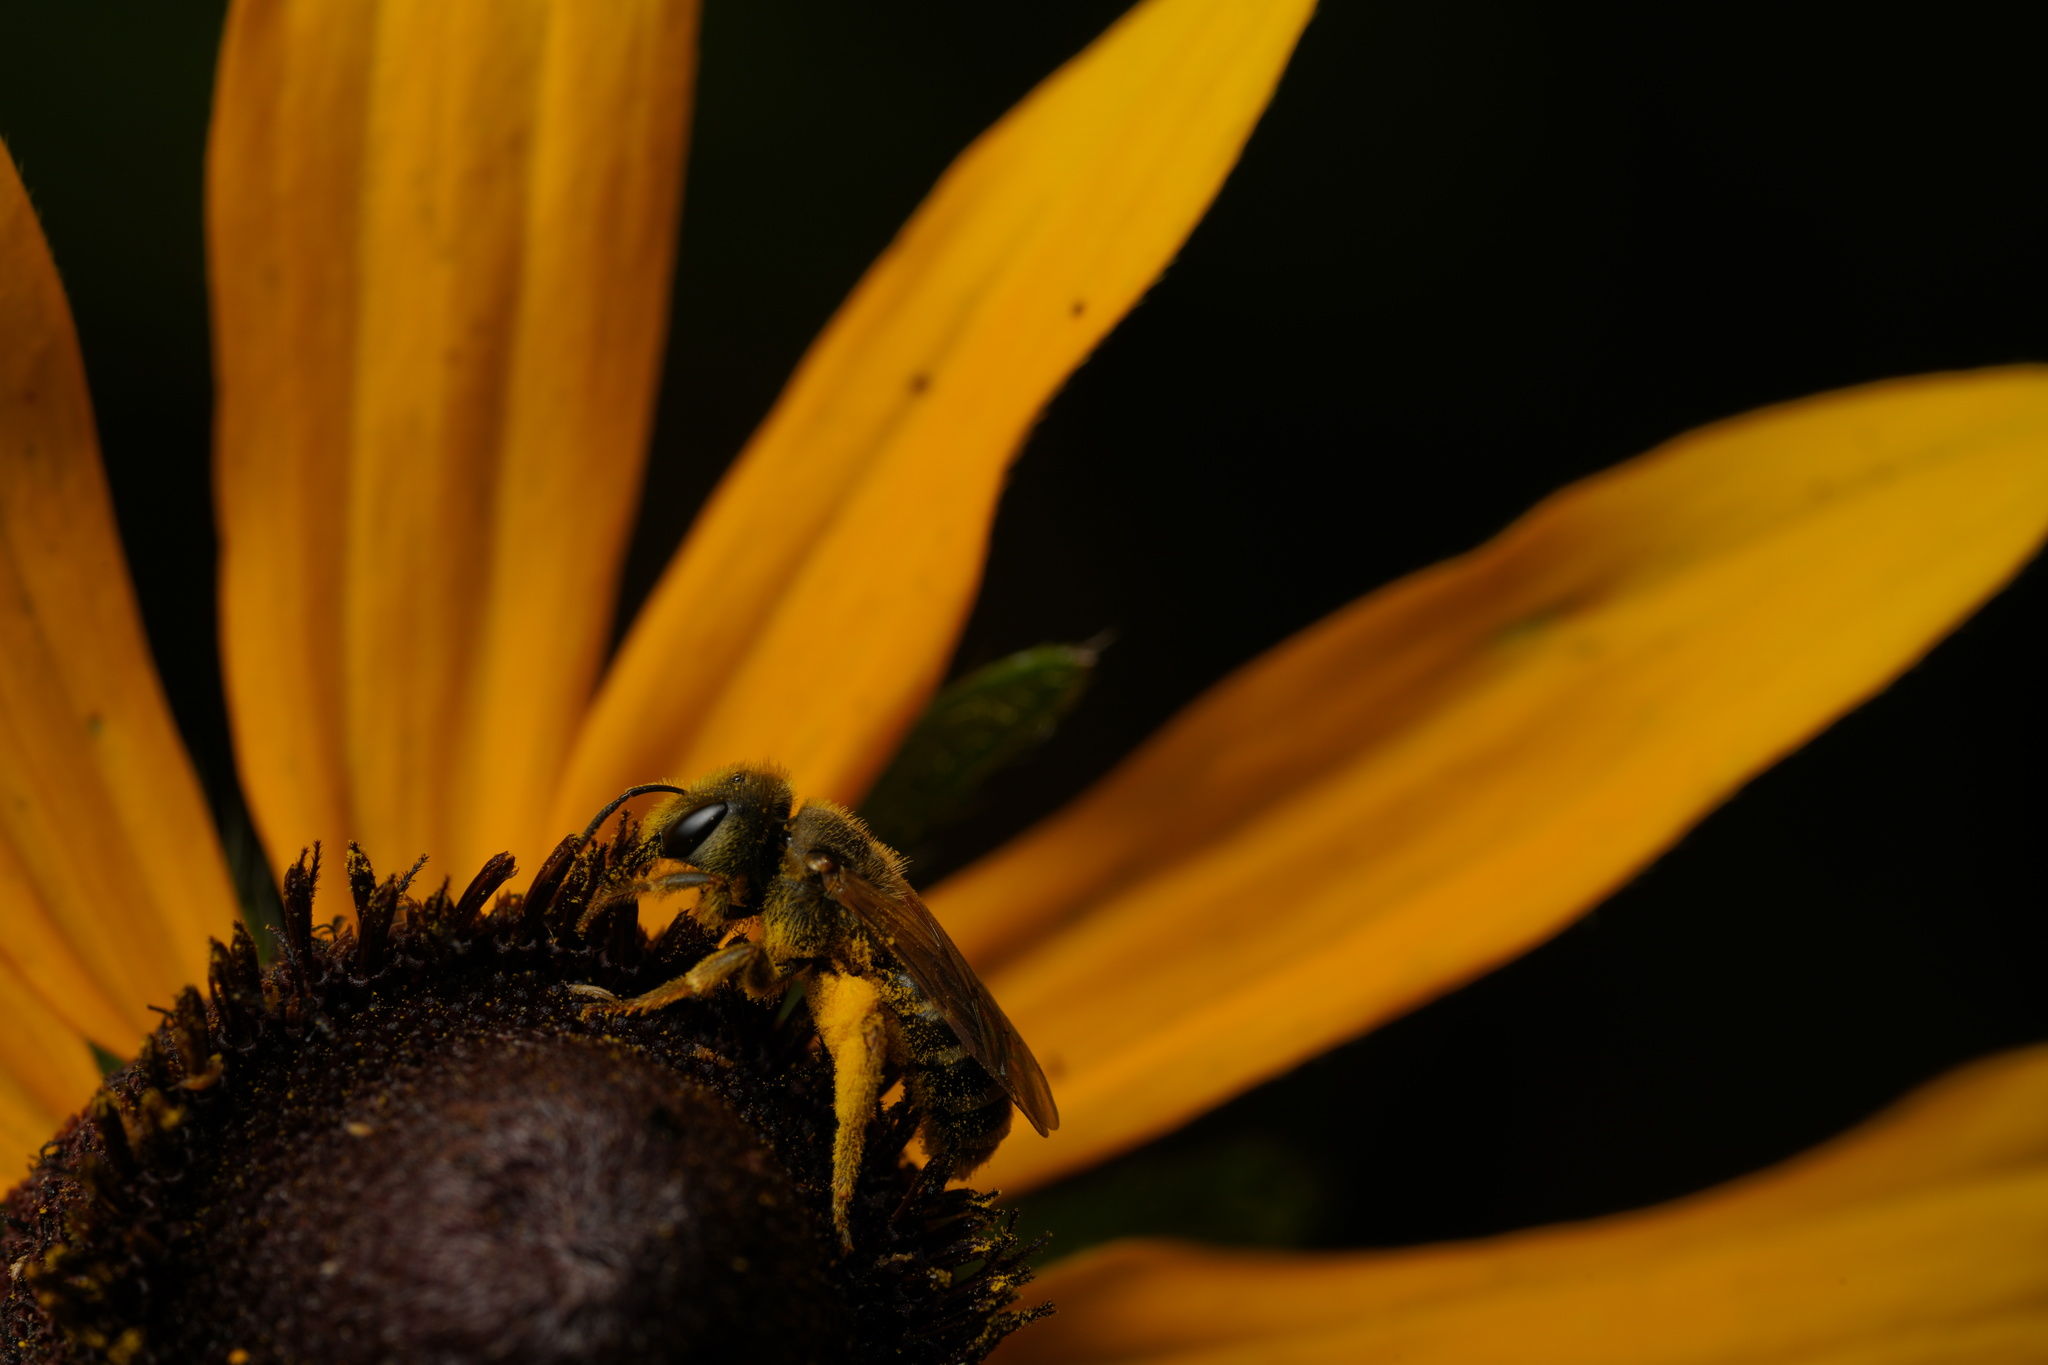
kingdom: Animalia
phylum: Arthropoda
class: Insecta
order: Hymenoptera
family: Halictidae
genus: Halictus
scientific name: Halictus ligatus
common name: Ligated furrow bee
